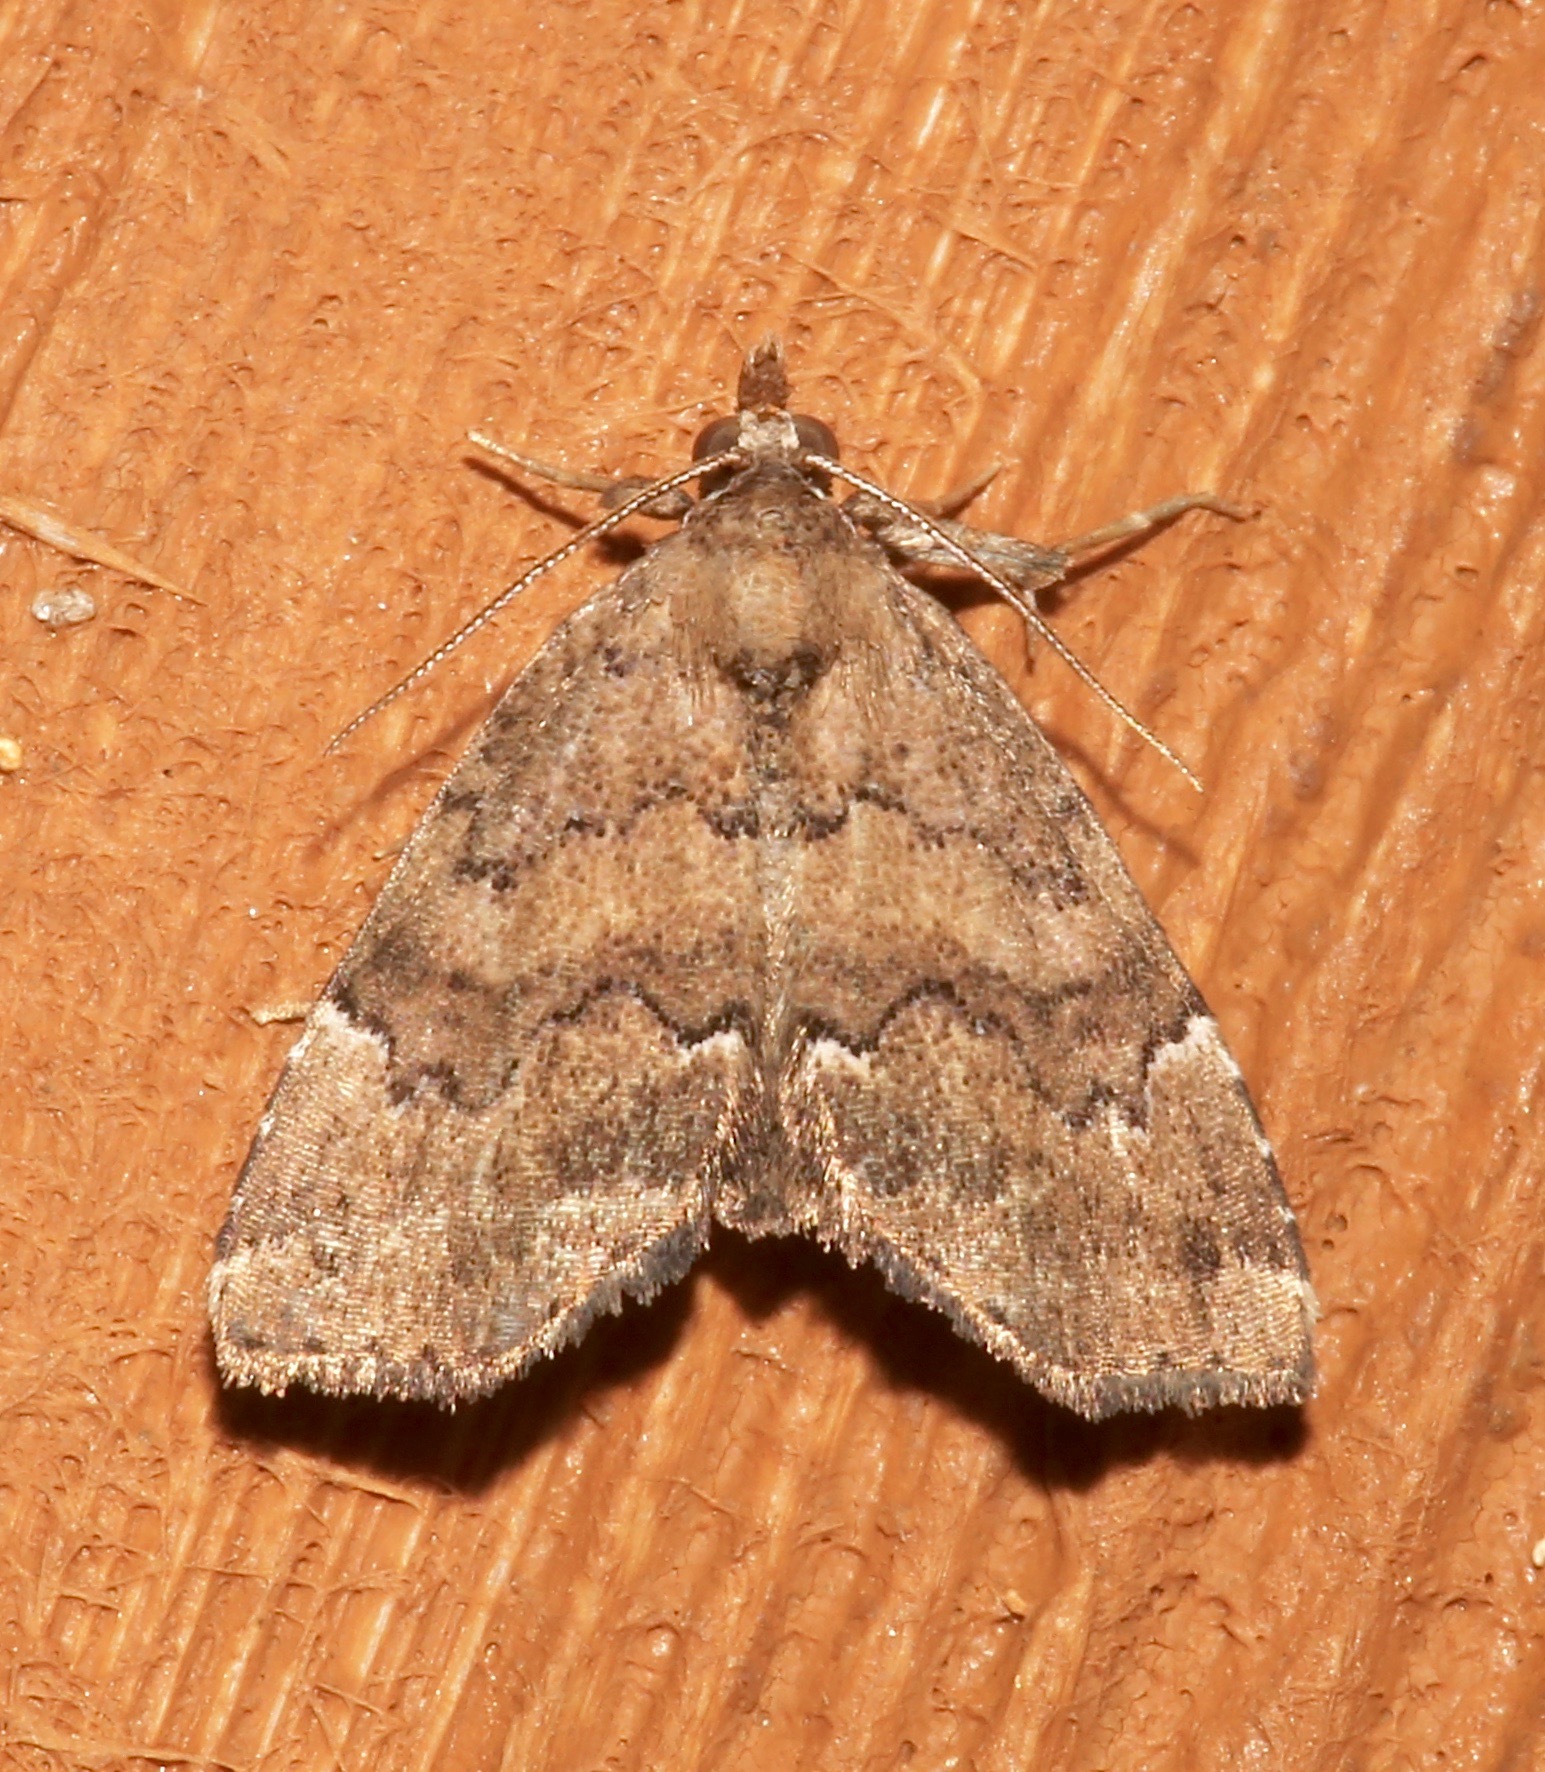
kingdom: Animalia
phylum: Arthropoda
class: Insecta
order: Lepidoptera
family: Erebidae
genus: Cutina
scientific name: Cutina aluticolor
